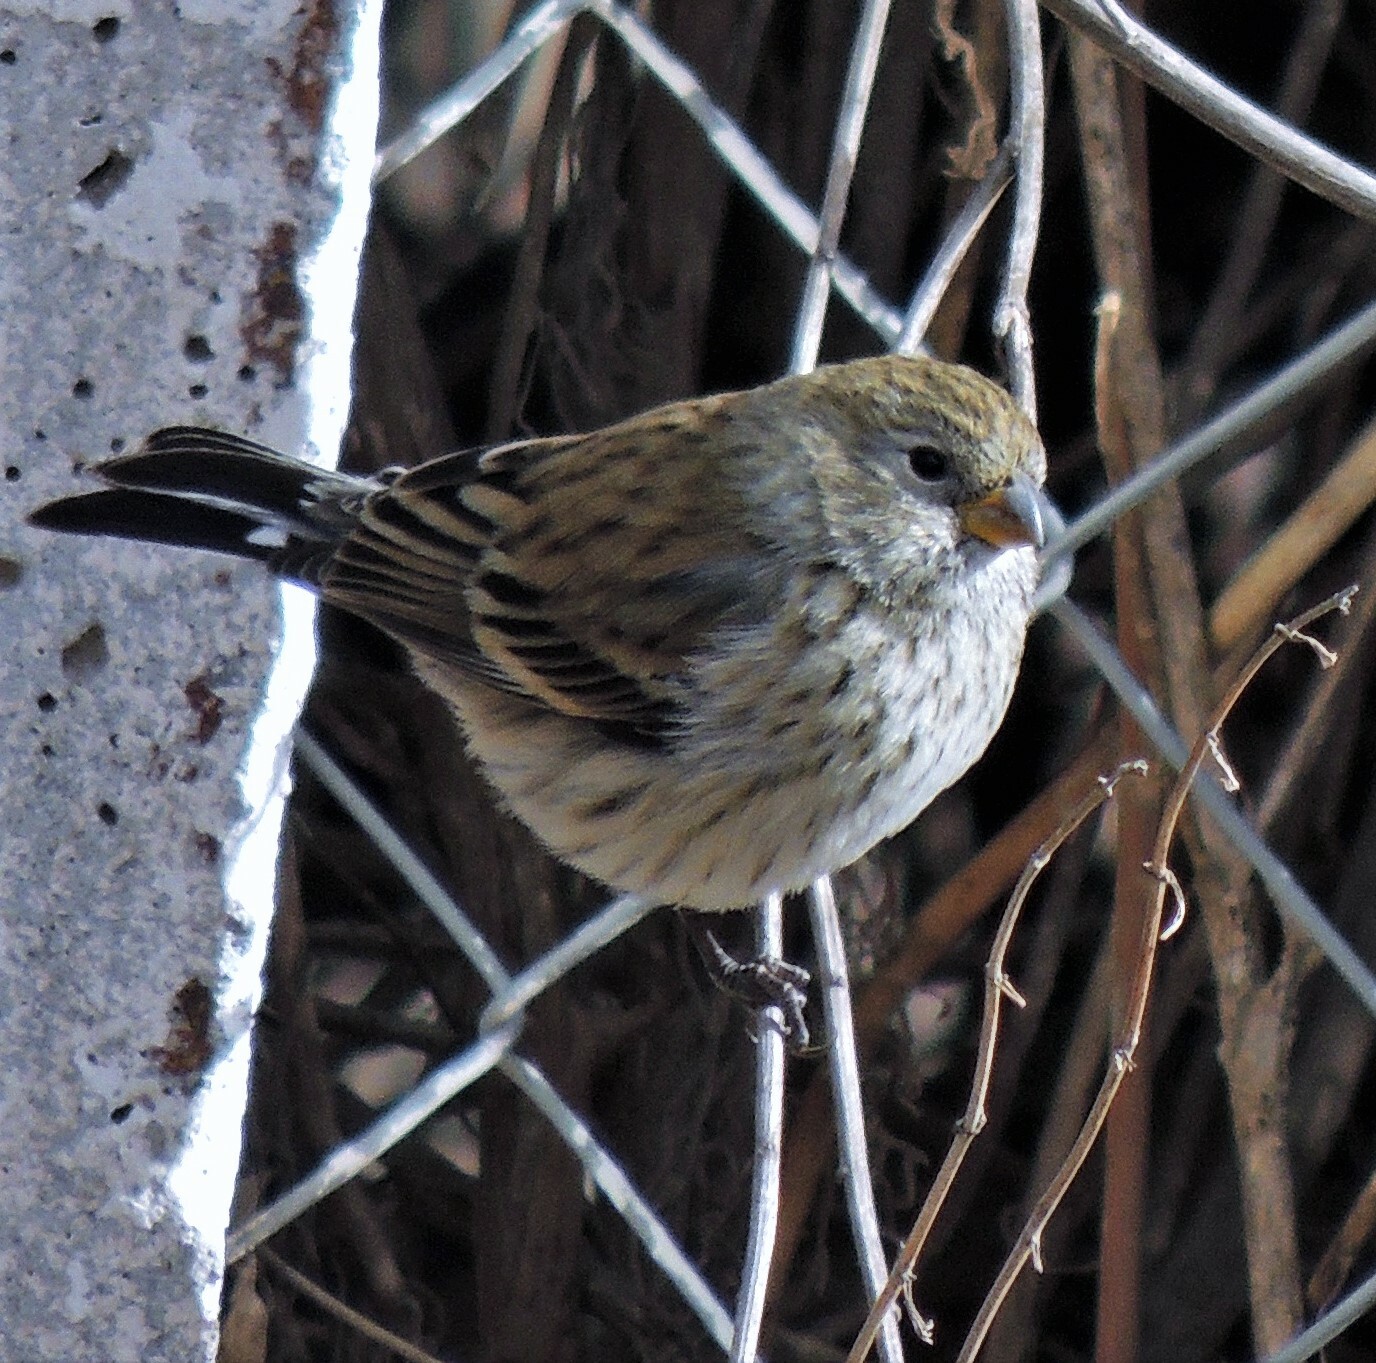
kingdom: Animalia
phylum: Chordata
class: Aves
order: Passeriformes
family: Thraupidae
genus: Catamenia
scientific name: Catamenia analis
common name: Band-tailed seedeater
